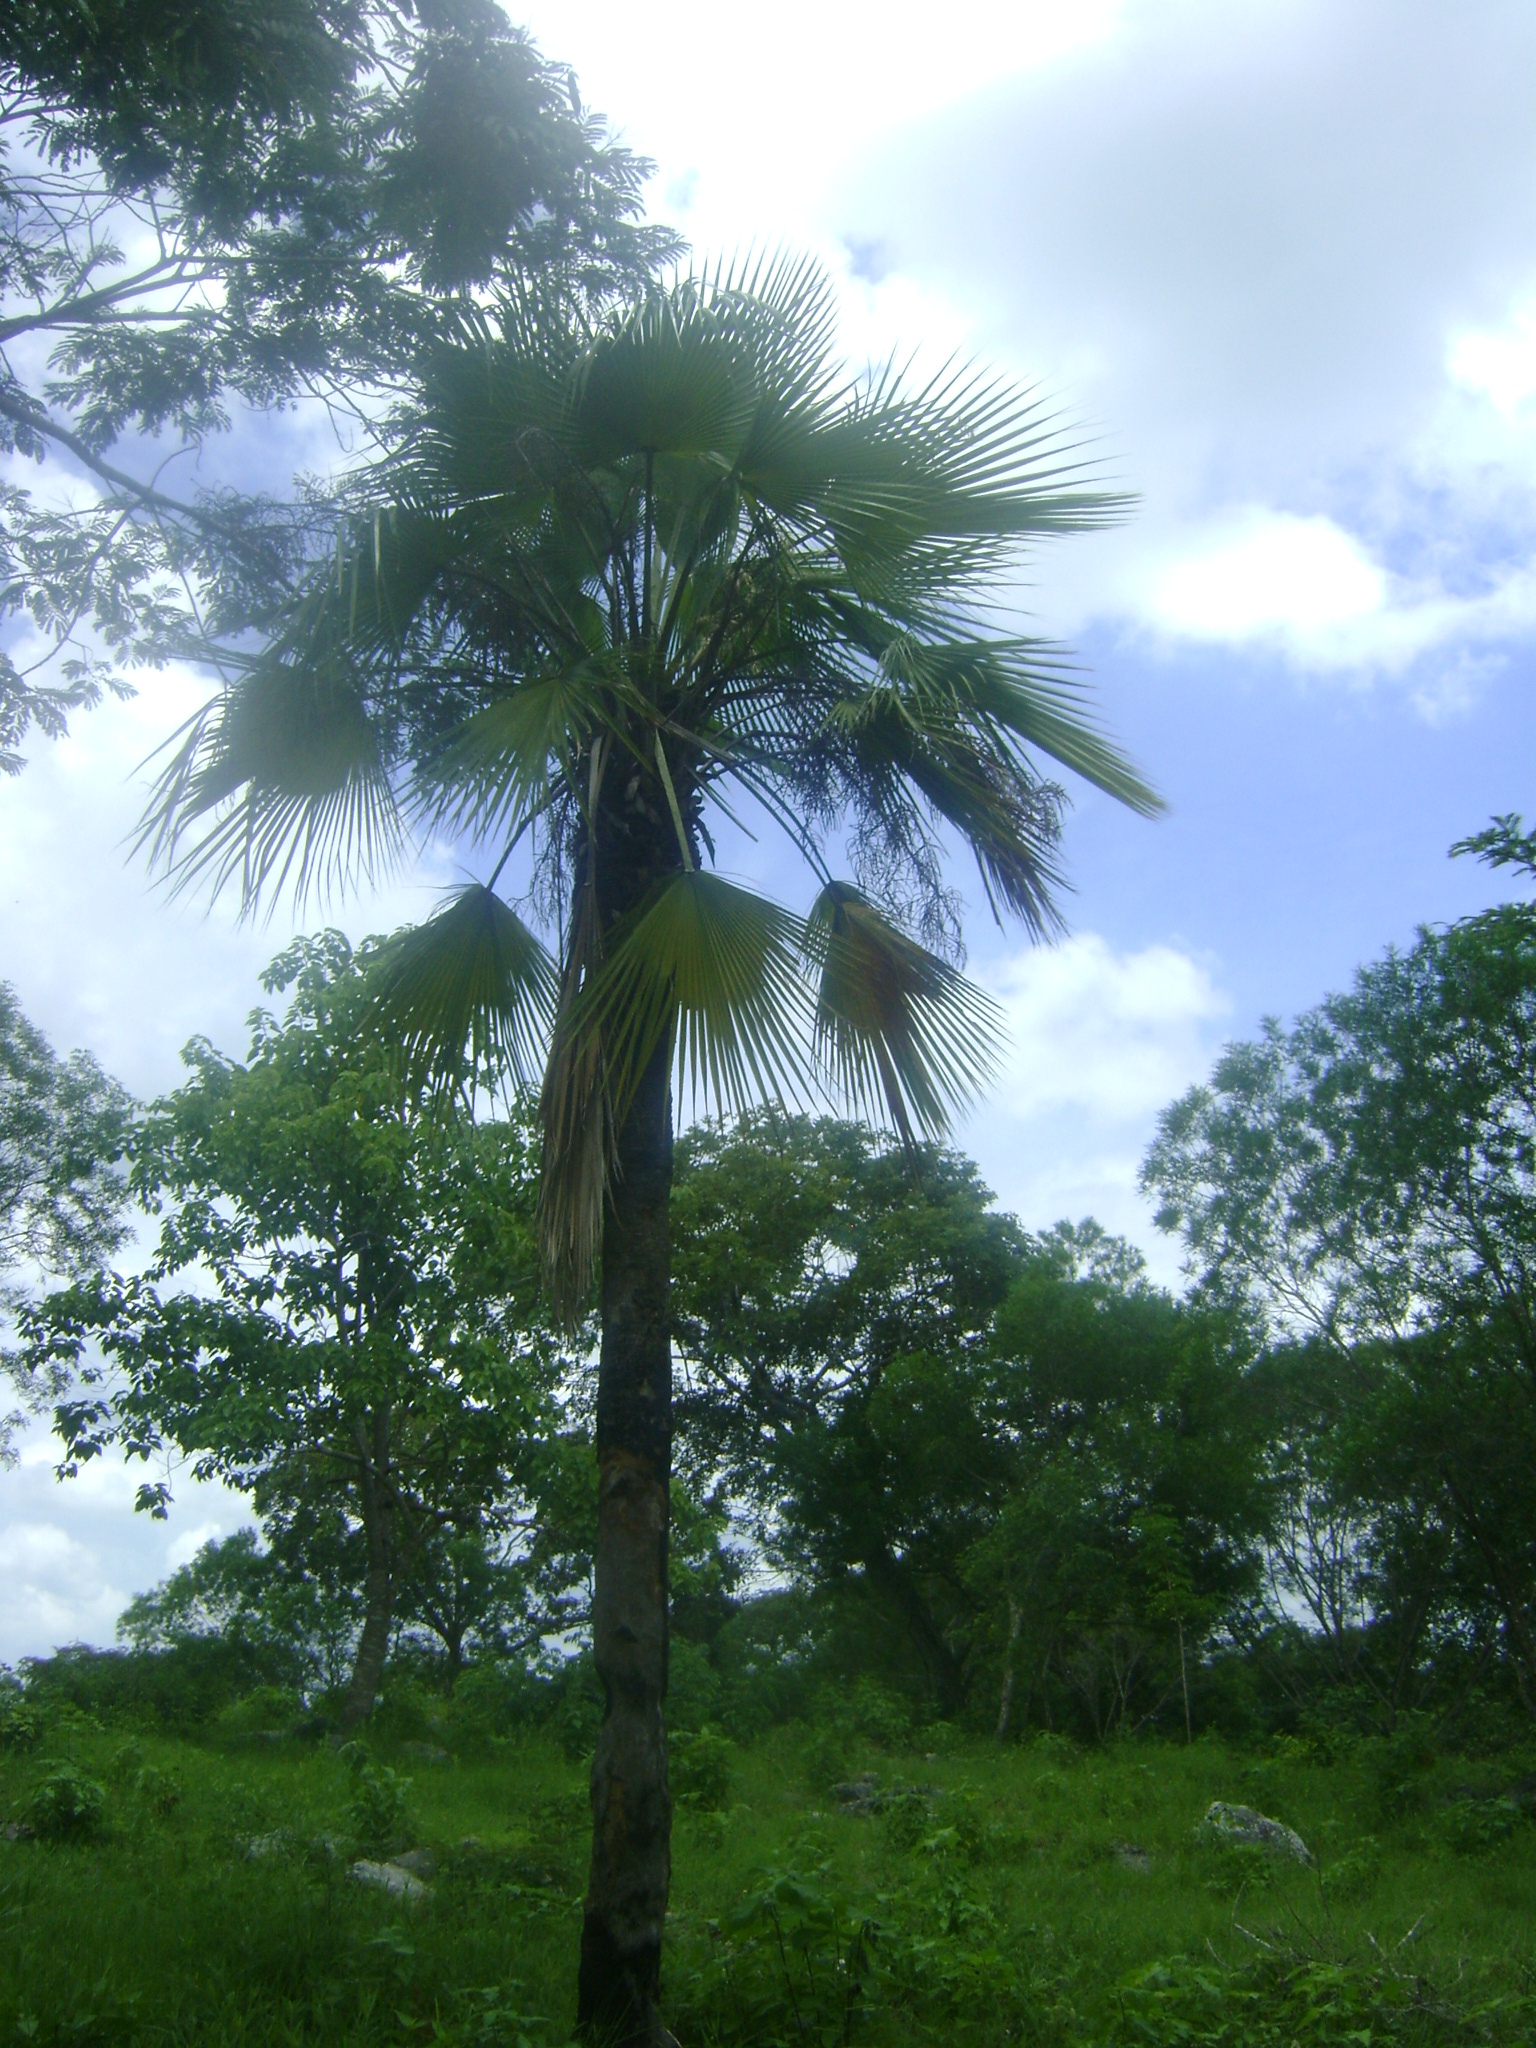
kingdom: Plantae
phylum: Tracheophyta
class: Liliopsida
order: Arecales
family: Arecaceae
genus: Brahea
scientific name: Brahea dulcis
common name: Apak palm
